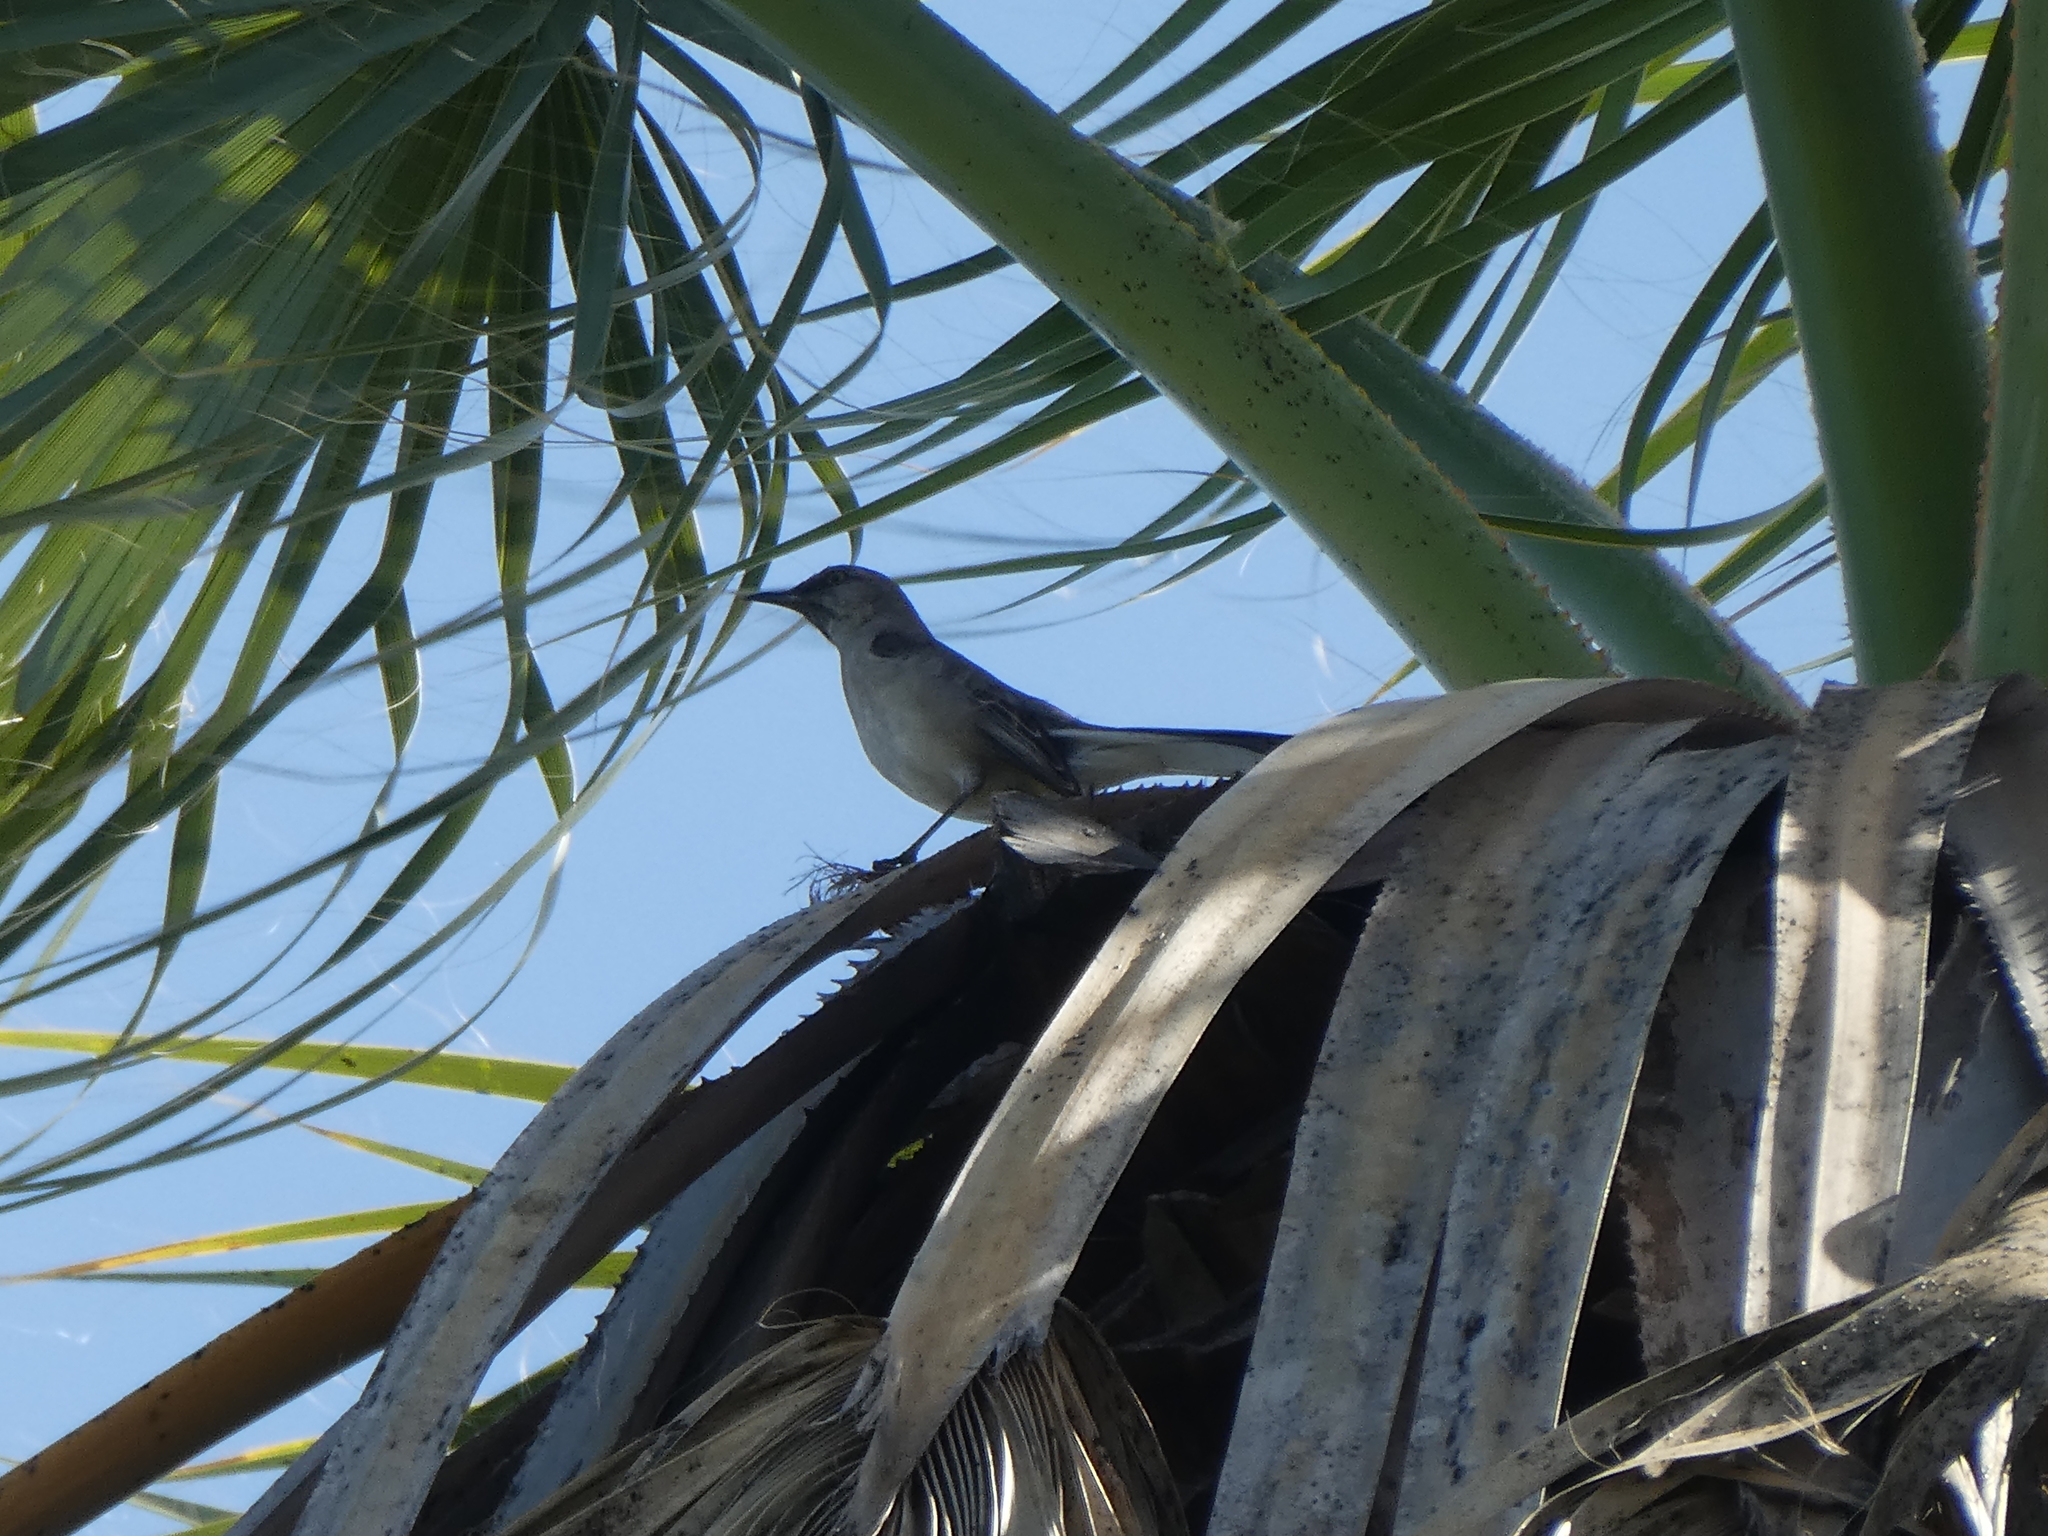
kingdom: Animalia
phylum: Chordata
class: Aves
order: Passeriformes
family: Mimidae
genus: Mimus
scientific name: Mimus polyglottos
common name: Northern mockingbird
